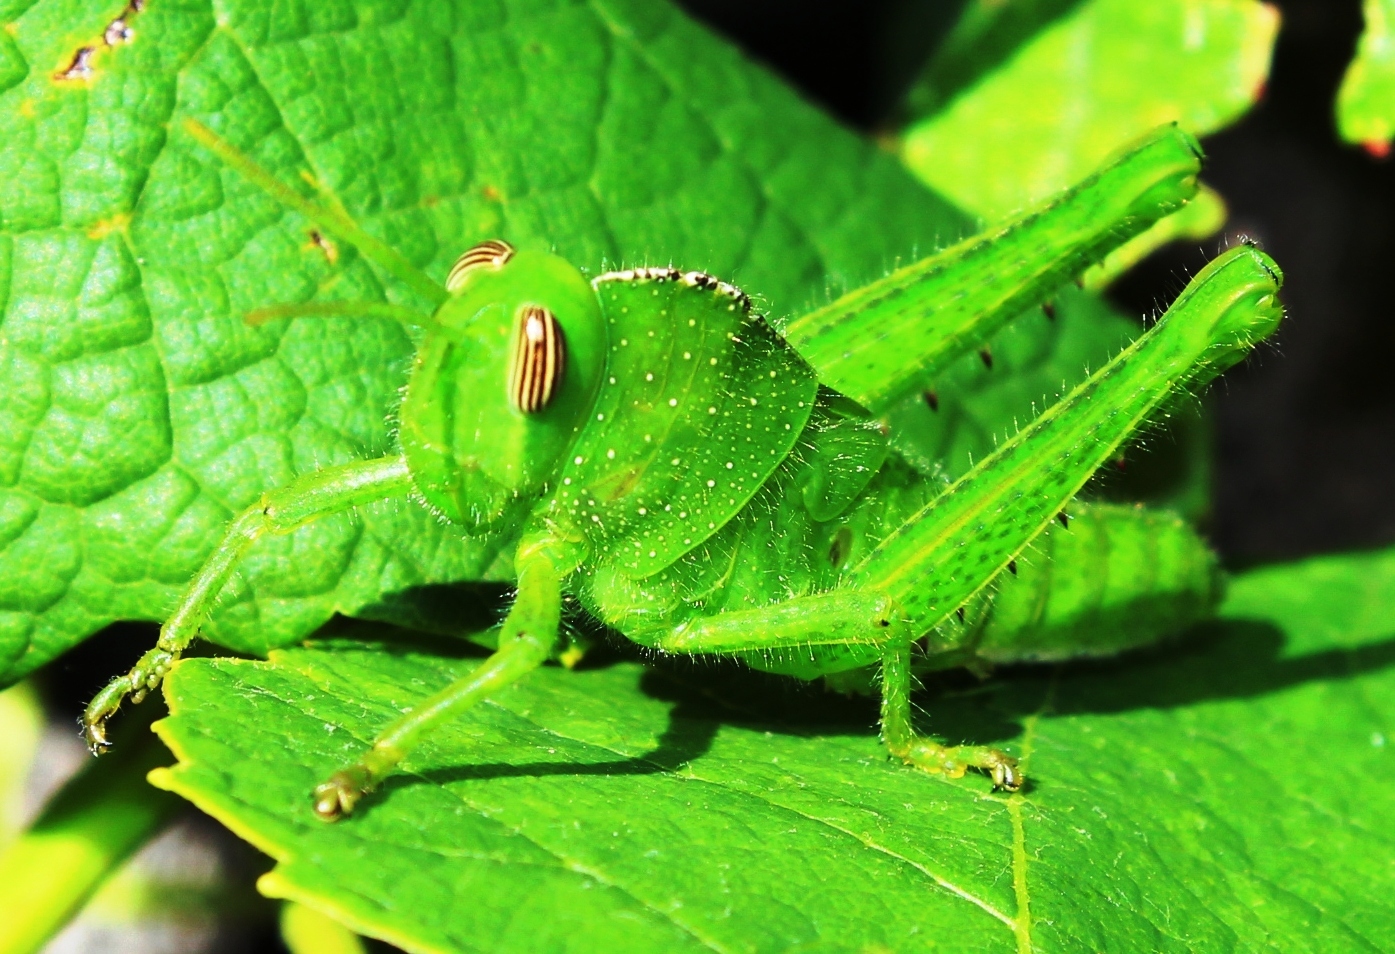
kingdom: Animalia
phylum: Arthropoda
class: Insecta
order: Orthoptera
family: Acrididae
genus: Acanthacris
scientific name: Acanthacris ruficornis
